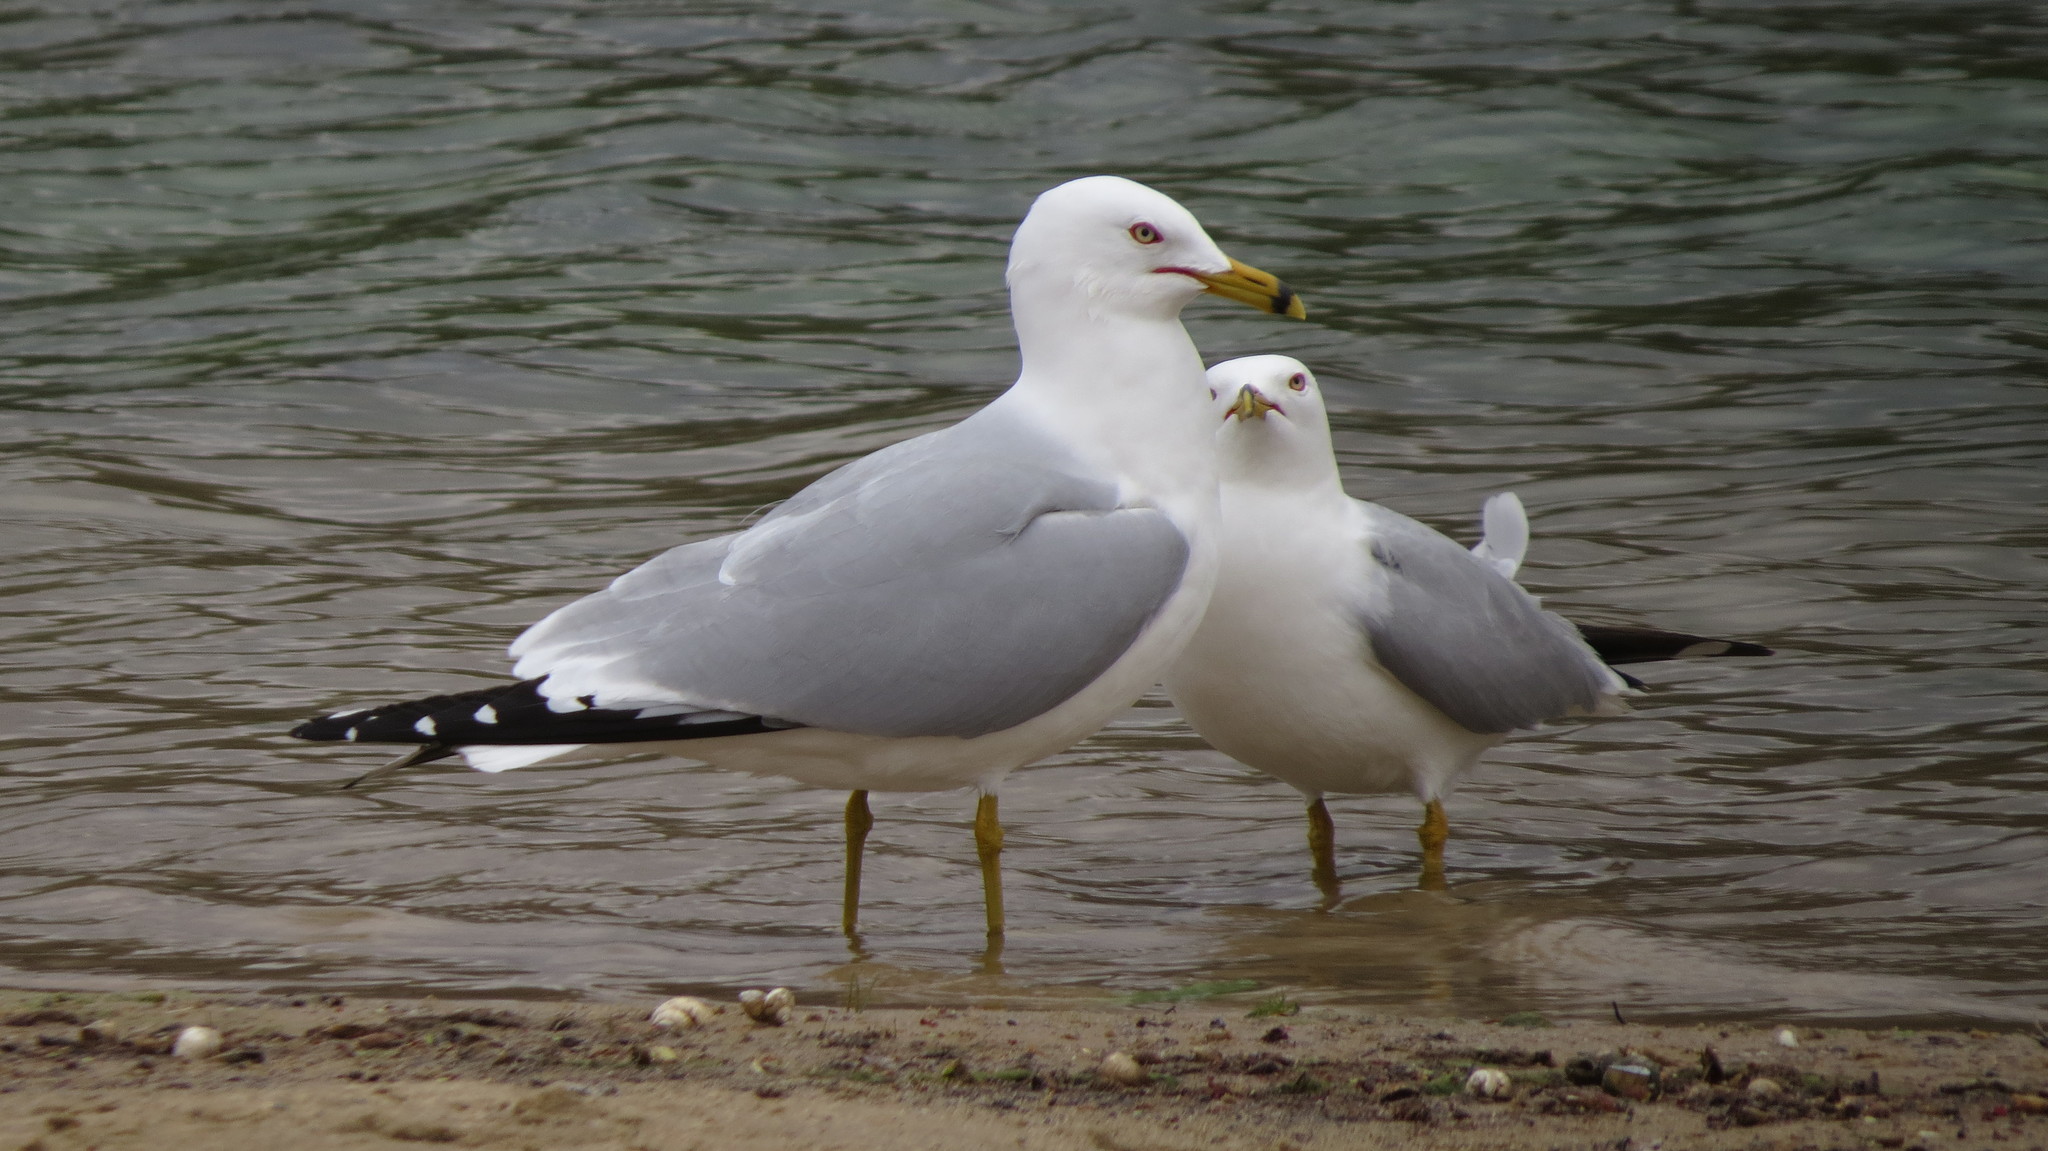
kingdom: Animalia
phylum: Chordata
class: Aves
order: Charadriiformes
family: Laridae
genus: Larus
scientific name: Larus delawarensis
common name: Ring-billed gull
